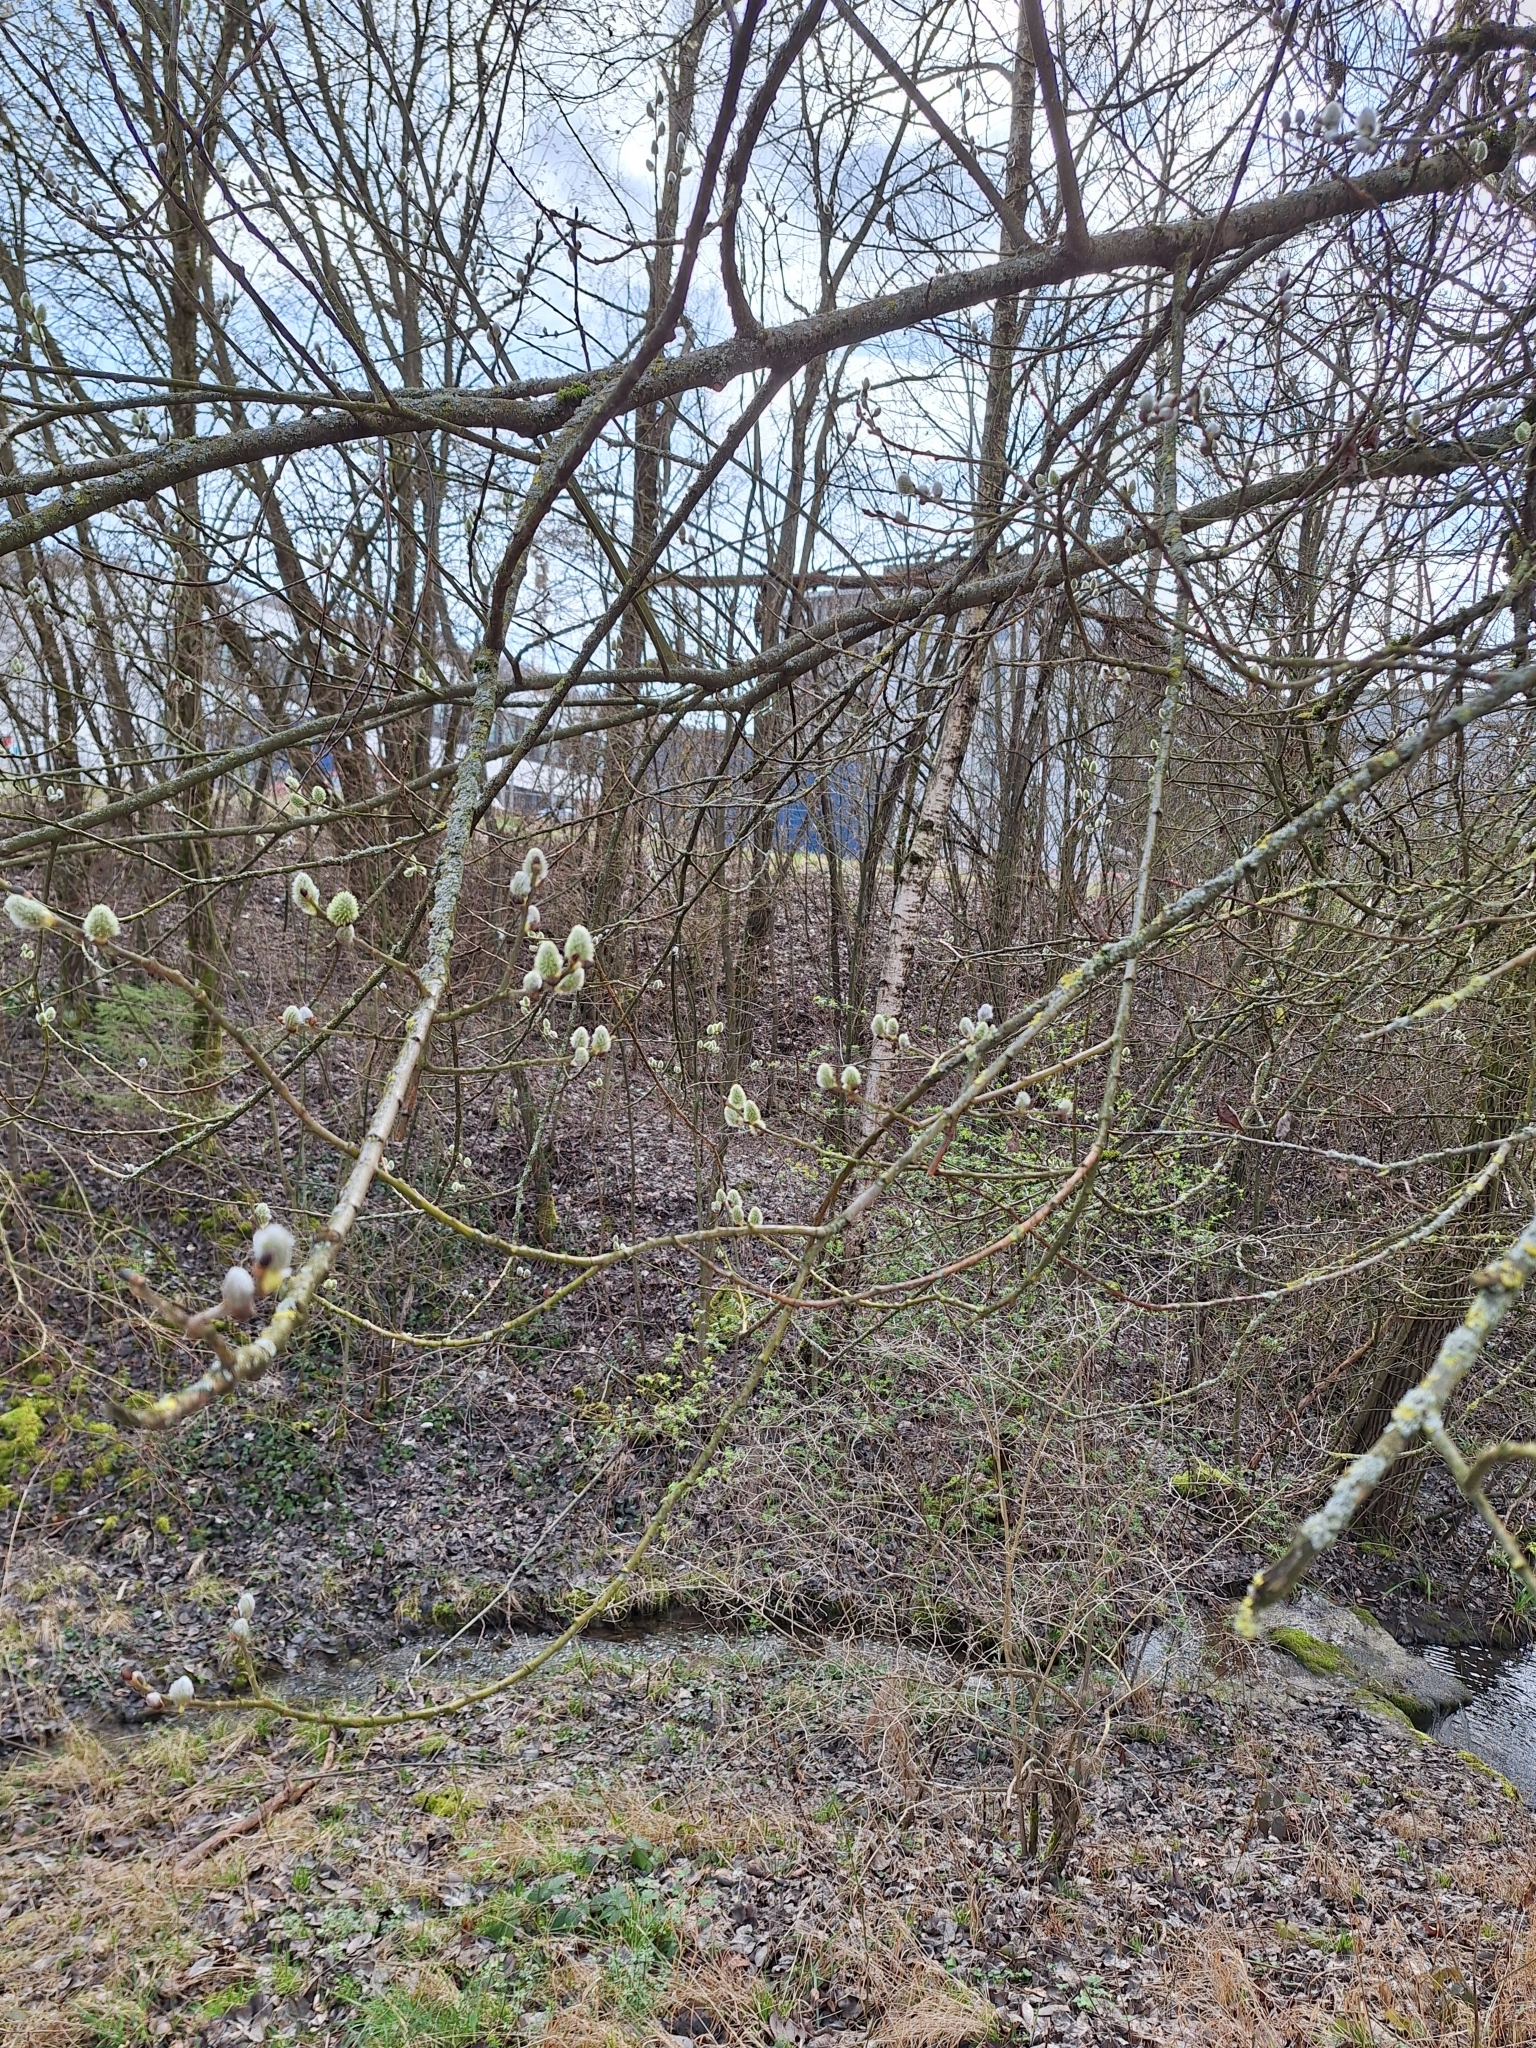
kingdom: Plantae
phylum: Tracheophyta
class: Magnoliopsida
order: Malpighiales
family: Salicaceae
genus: Salix
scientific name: Salix caprea
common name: Goat willow
